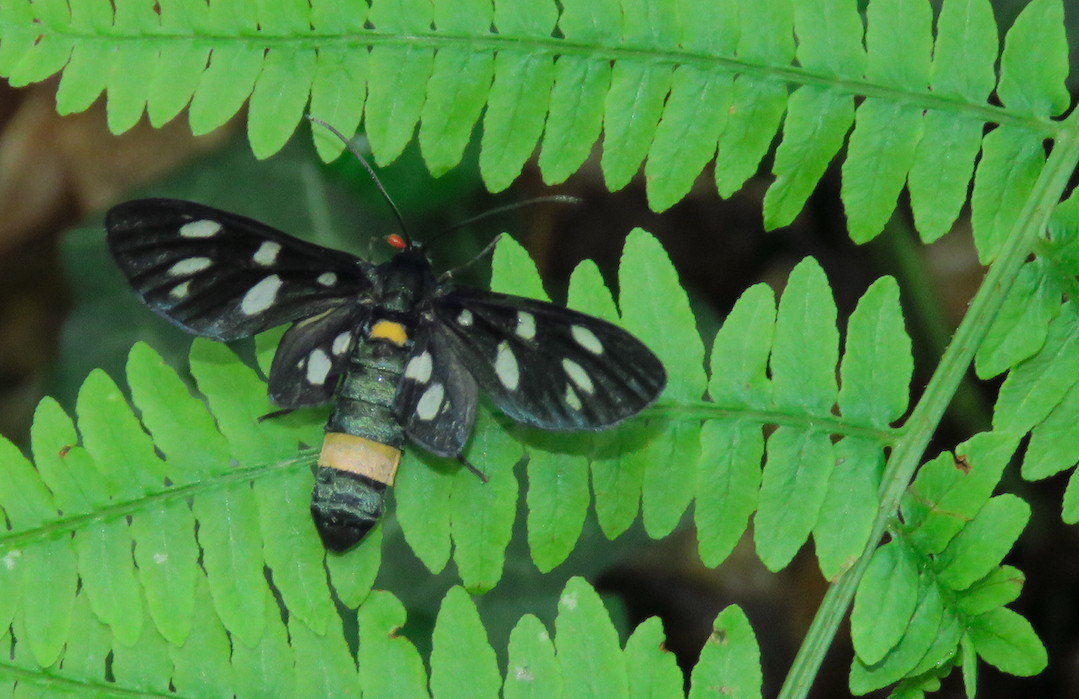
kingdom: Animalia
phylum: Arthropoda
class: Insecta
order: Lepidoptera
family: Erebidae
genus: Amata
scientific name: Amata phegea
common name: Nine-spotted
